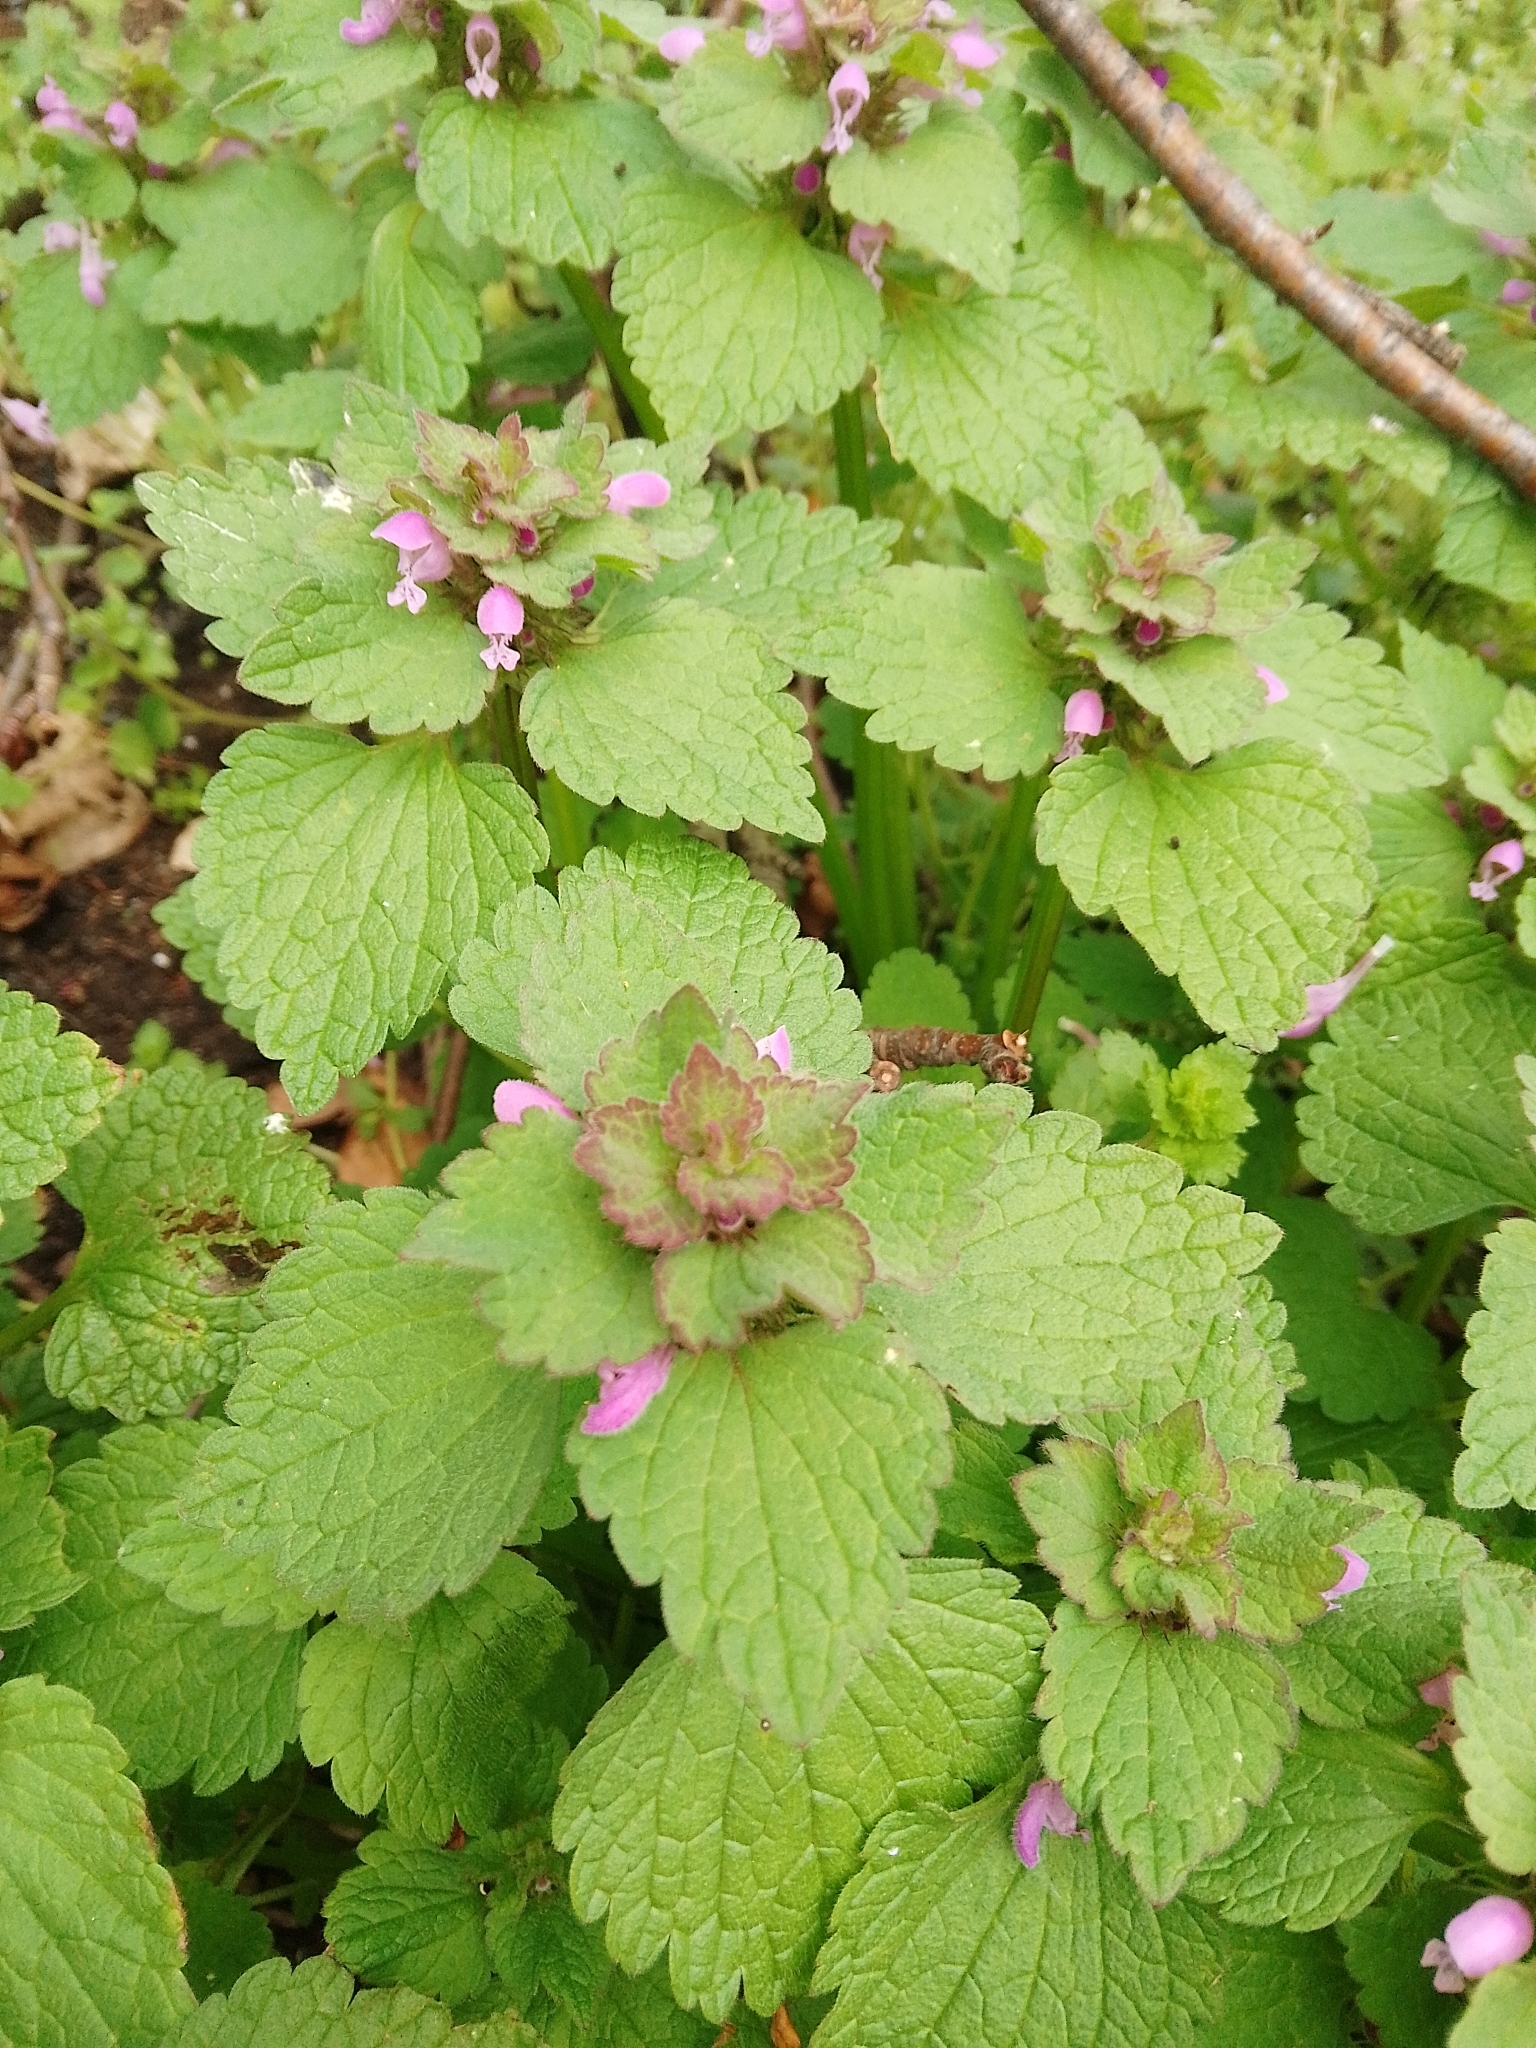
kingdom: Plantae
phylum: Tracheophyta
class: Magnoliopsida
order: Lamiales
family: Lamiaceae
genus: Lamium
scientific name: Lamium purpureum
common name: Red dead-nettle
